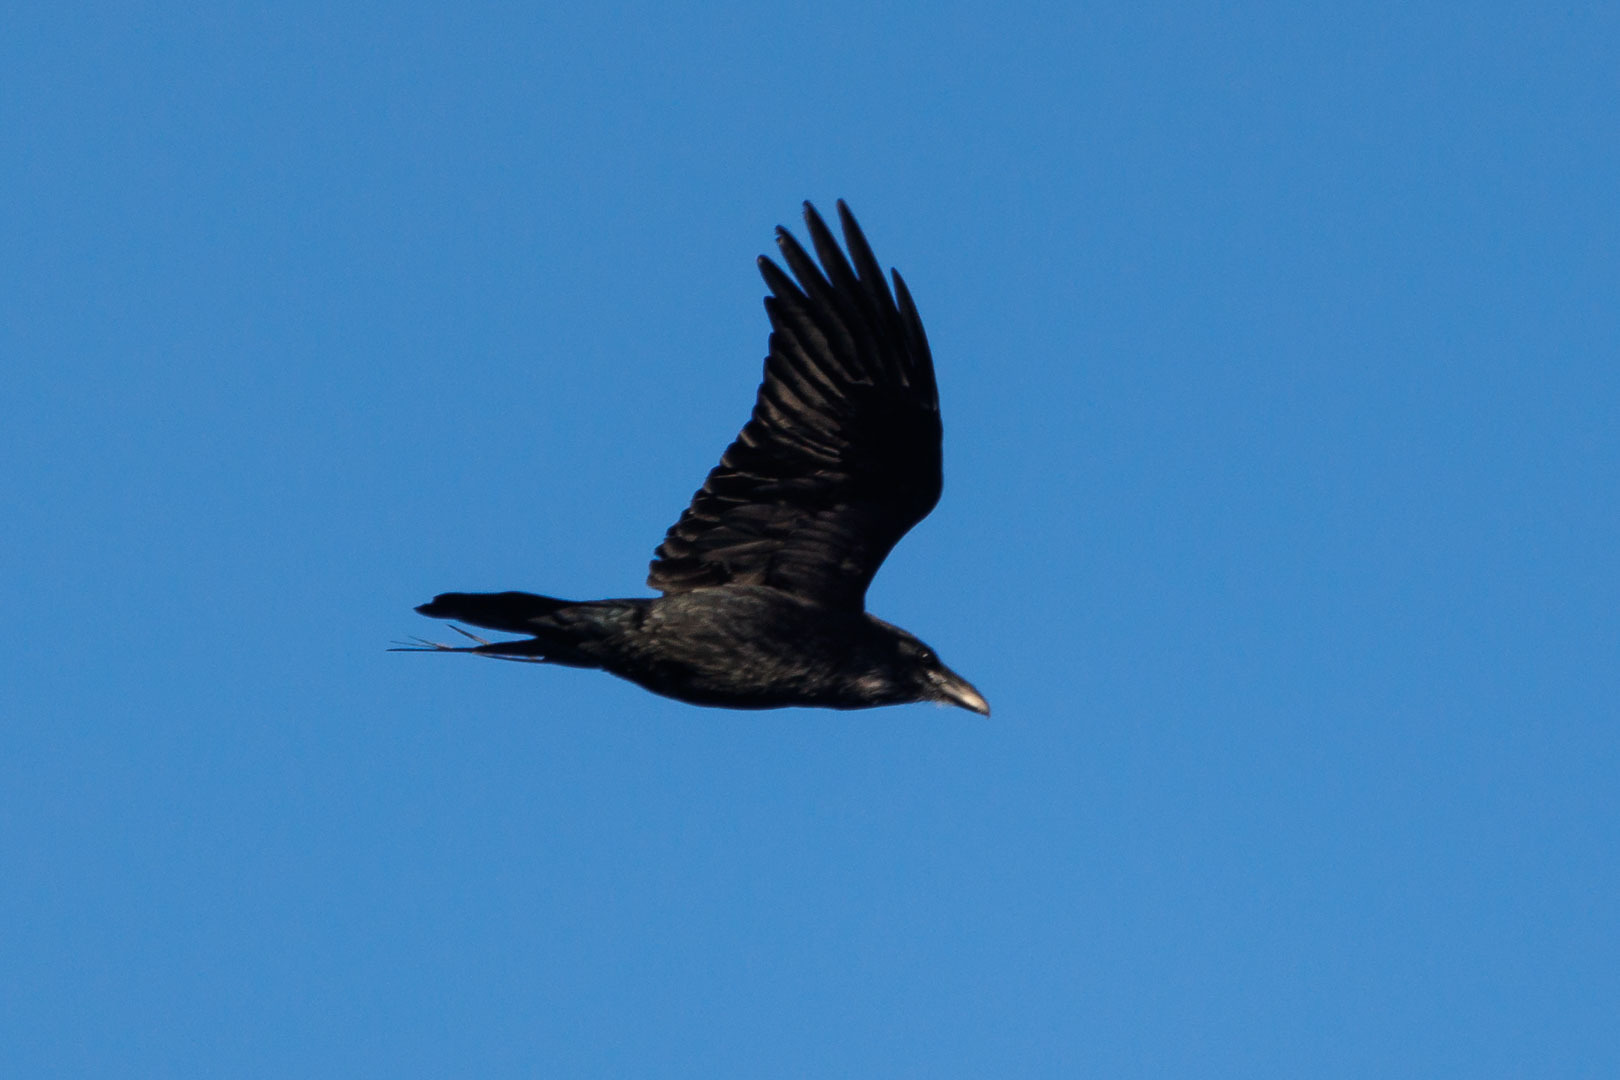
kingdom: Animalia
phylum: Chordata
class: Aves
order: Passeriformes
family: Corvidae
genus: Corvus
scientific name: Corvus corax
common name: Common raven
